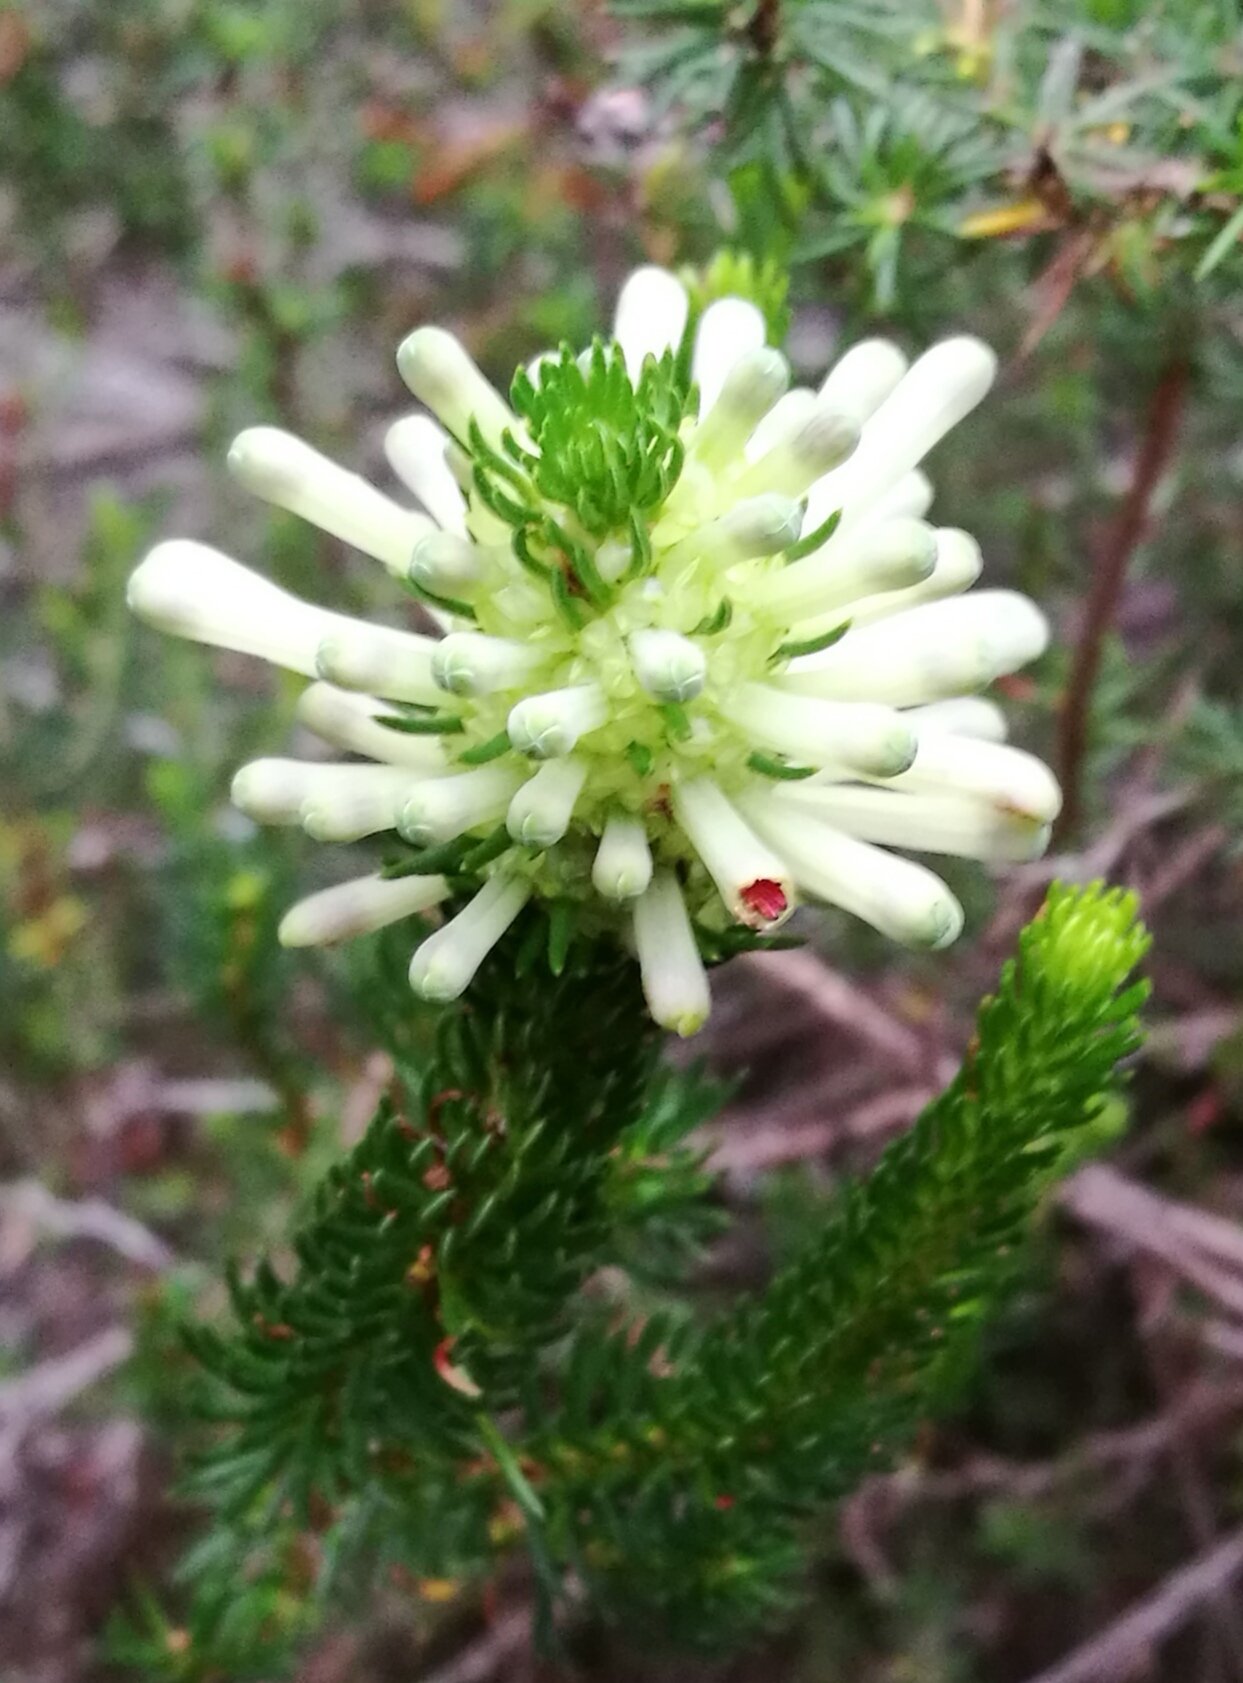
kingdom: Plantae
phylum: Tracheophyta
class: Magnoliopsida
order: Ericales
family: Ericaceae
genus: Erica
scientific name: Erica sessiliflora
